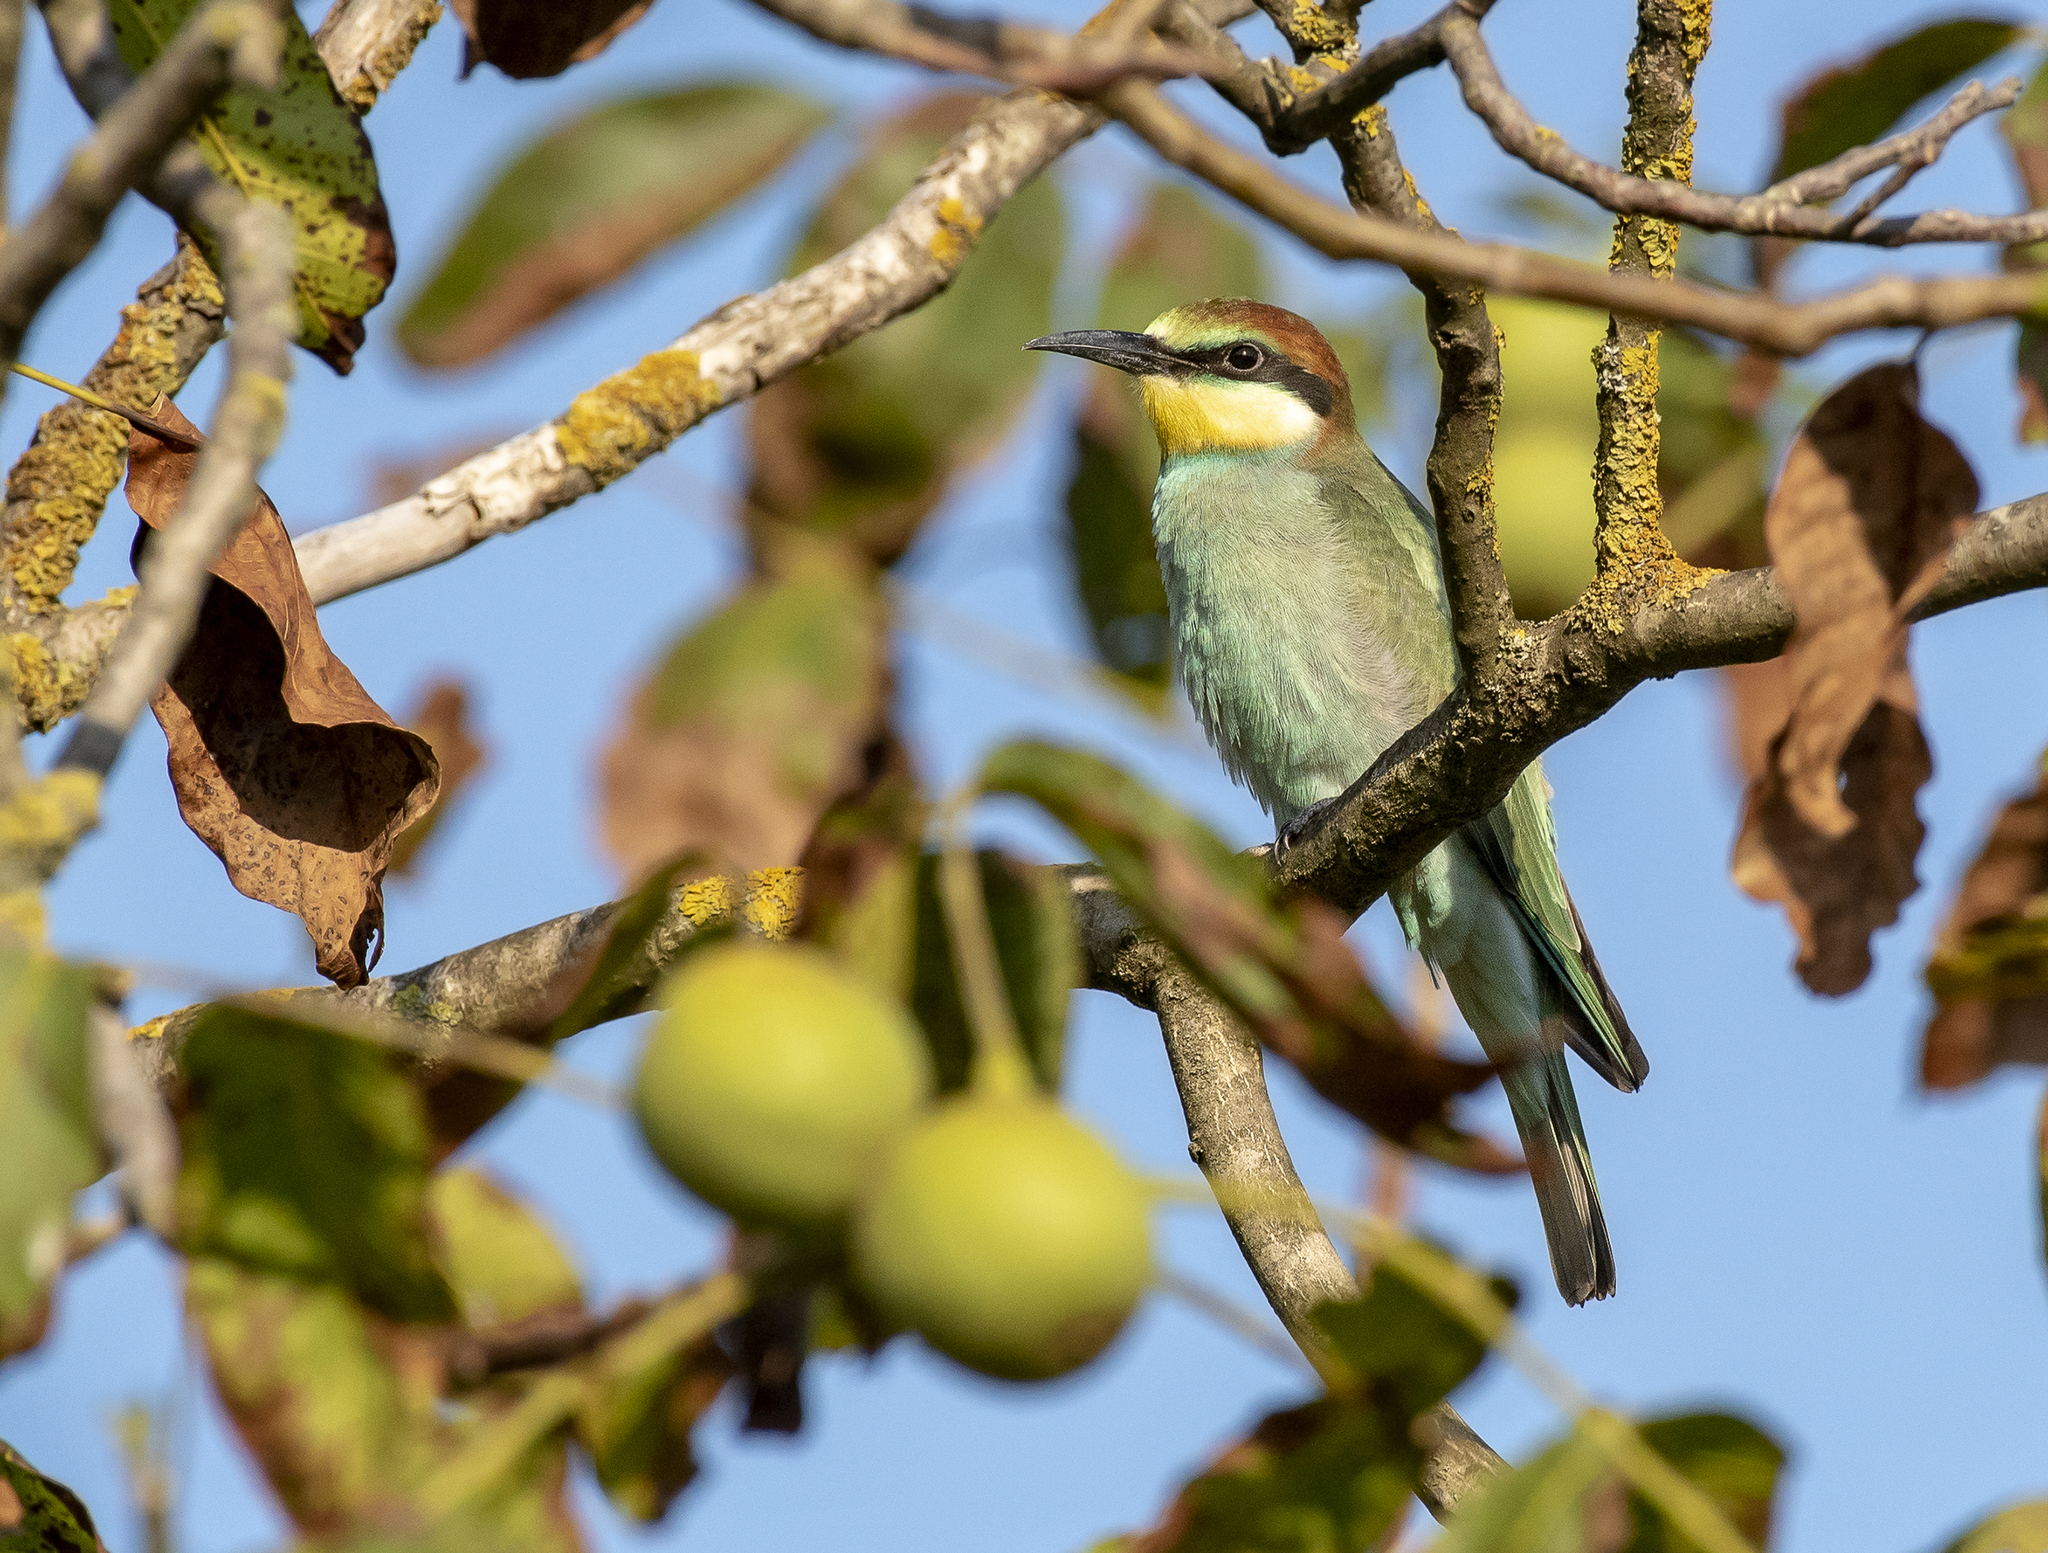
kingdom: Animalia
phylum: Chordata
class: Aves
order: Coraciiformes
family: Meropidae
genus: Merops
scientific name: Merops apiaster
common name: European bee-eater
